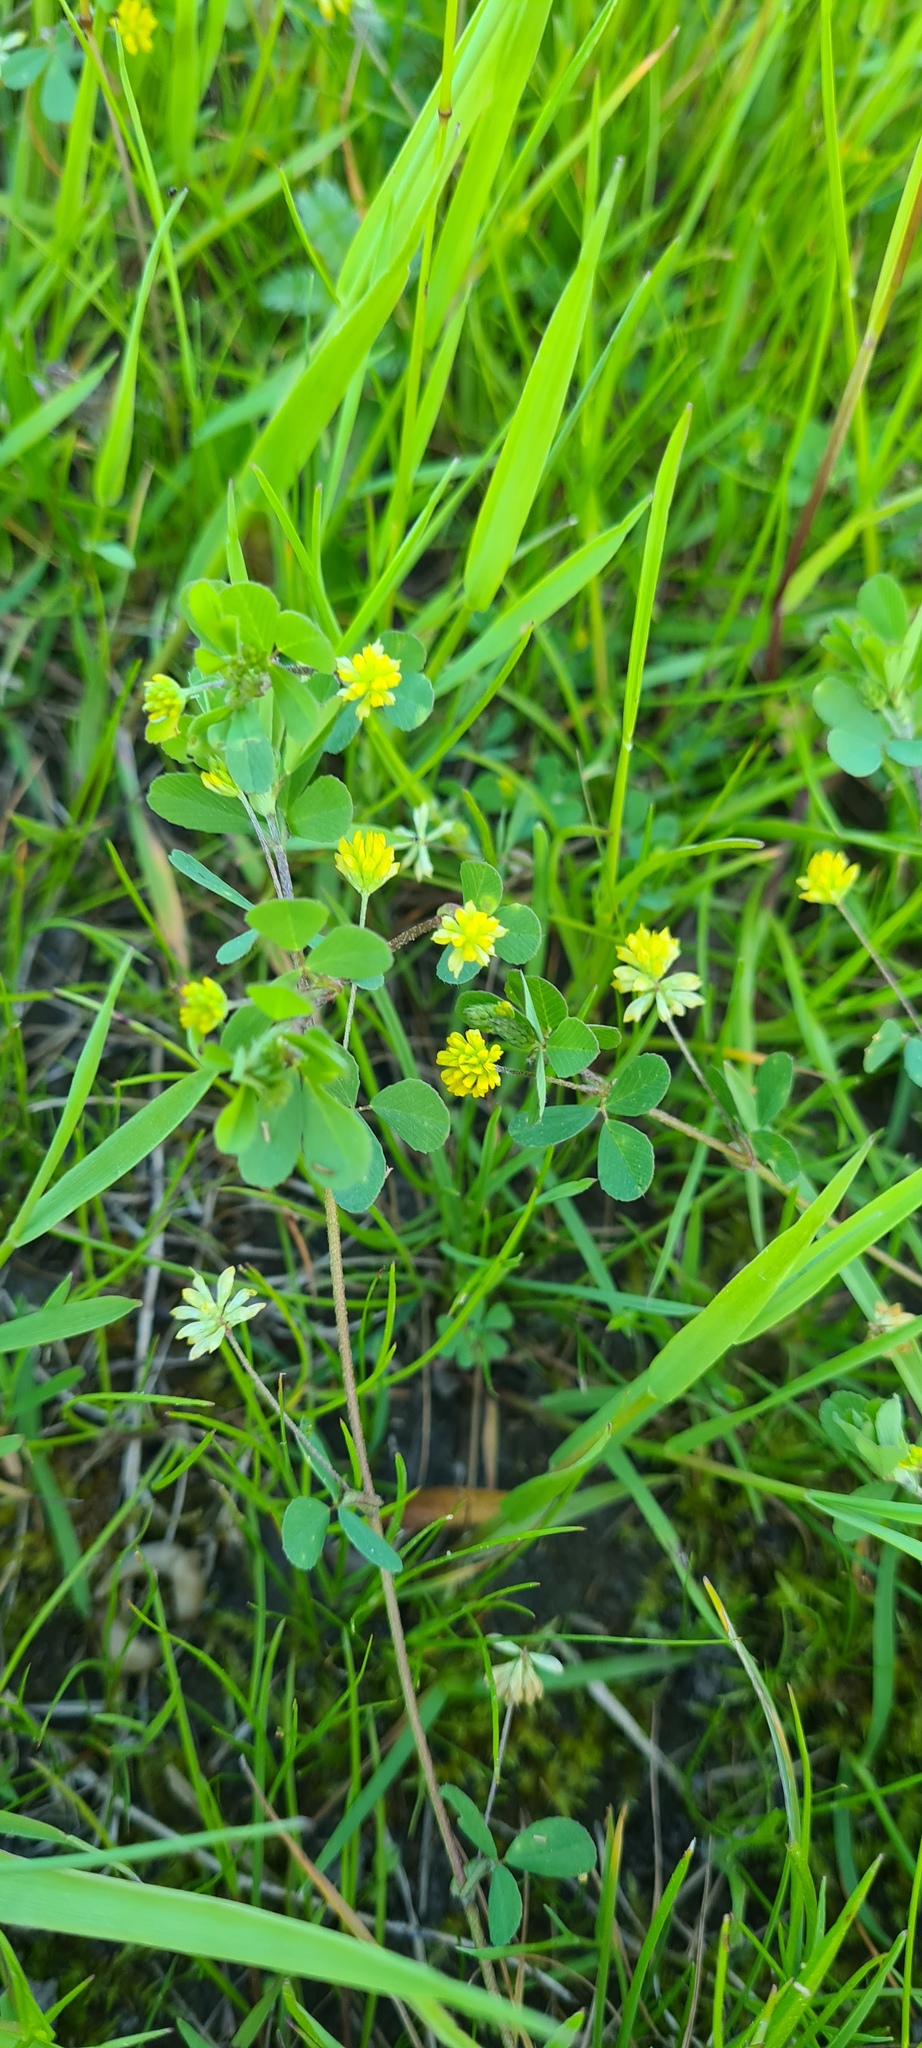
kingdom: Plantae
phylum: Tracheophyta
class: Magnoliopsida
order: Fabales
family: Fabaceae
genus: Trifolium
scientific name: Trifolium dubium
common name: Suckling clover
